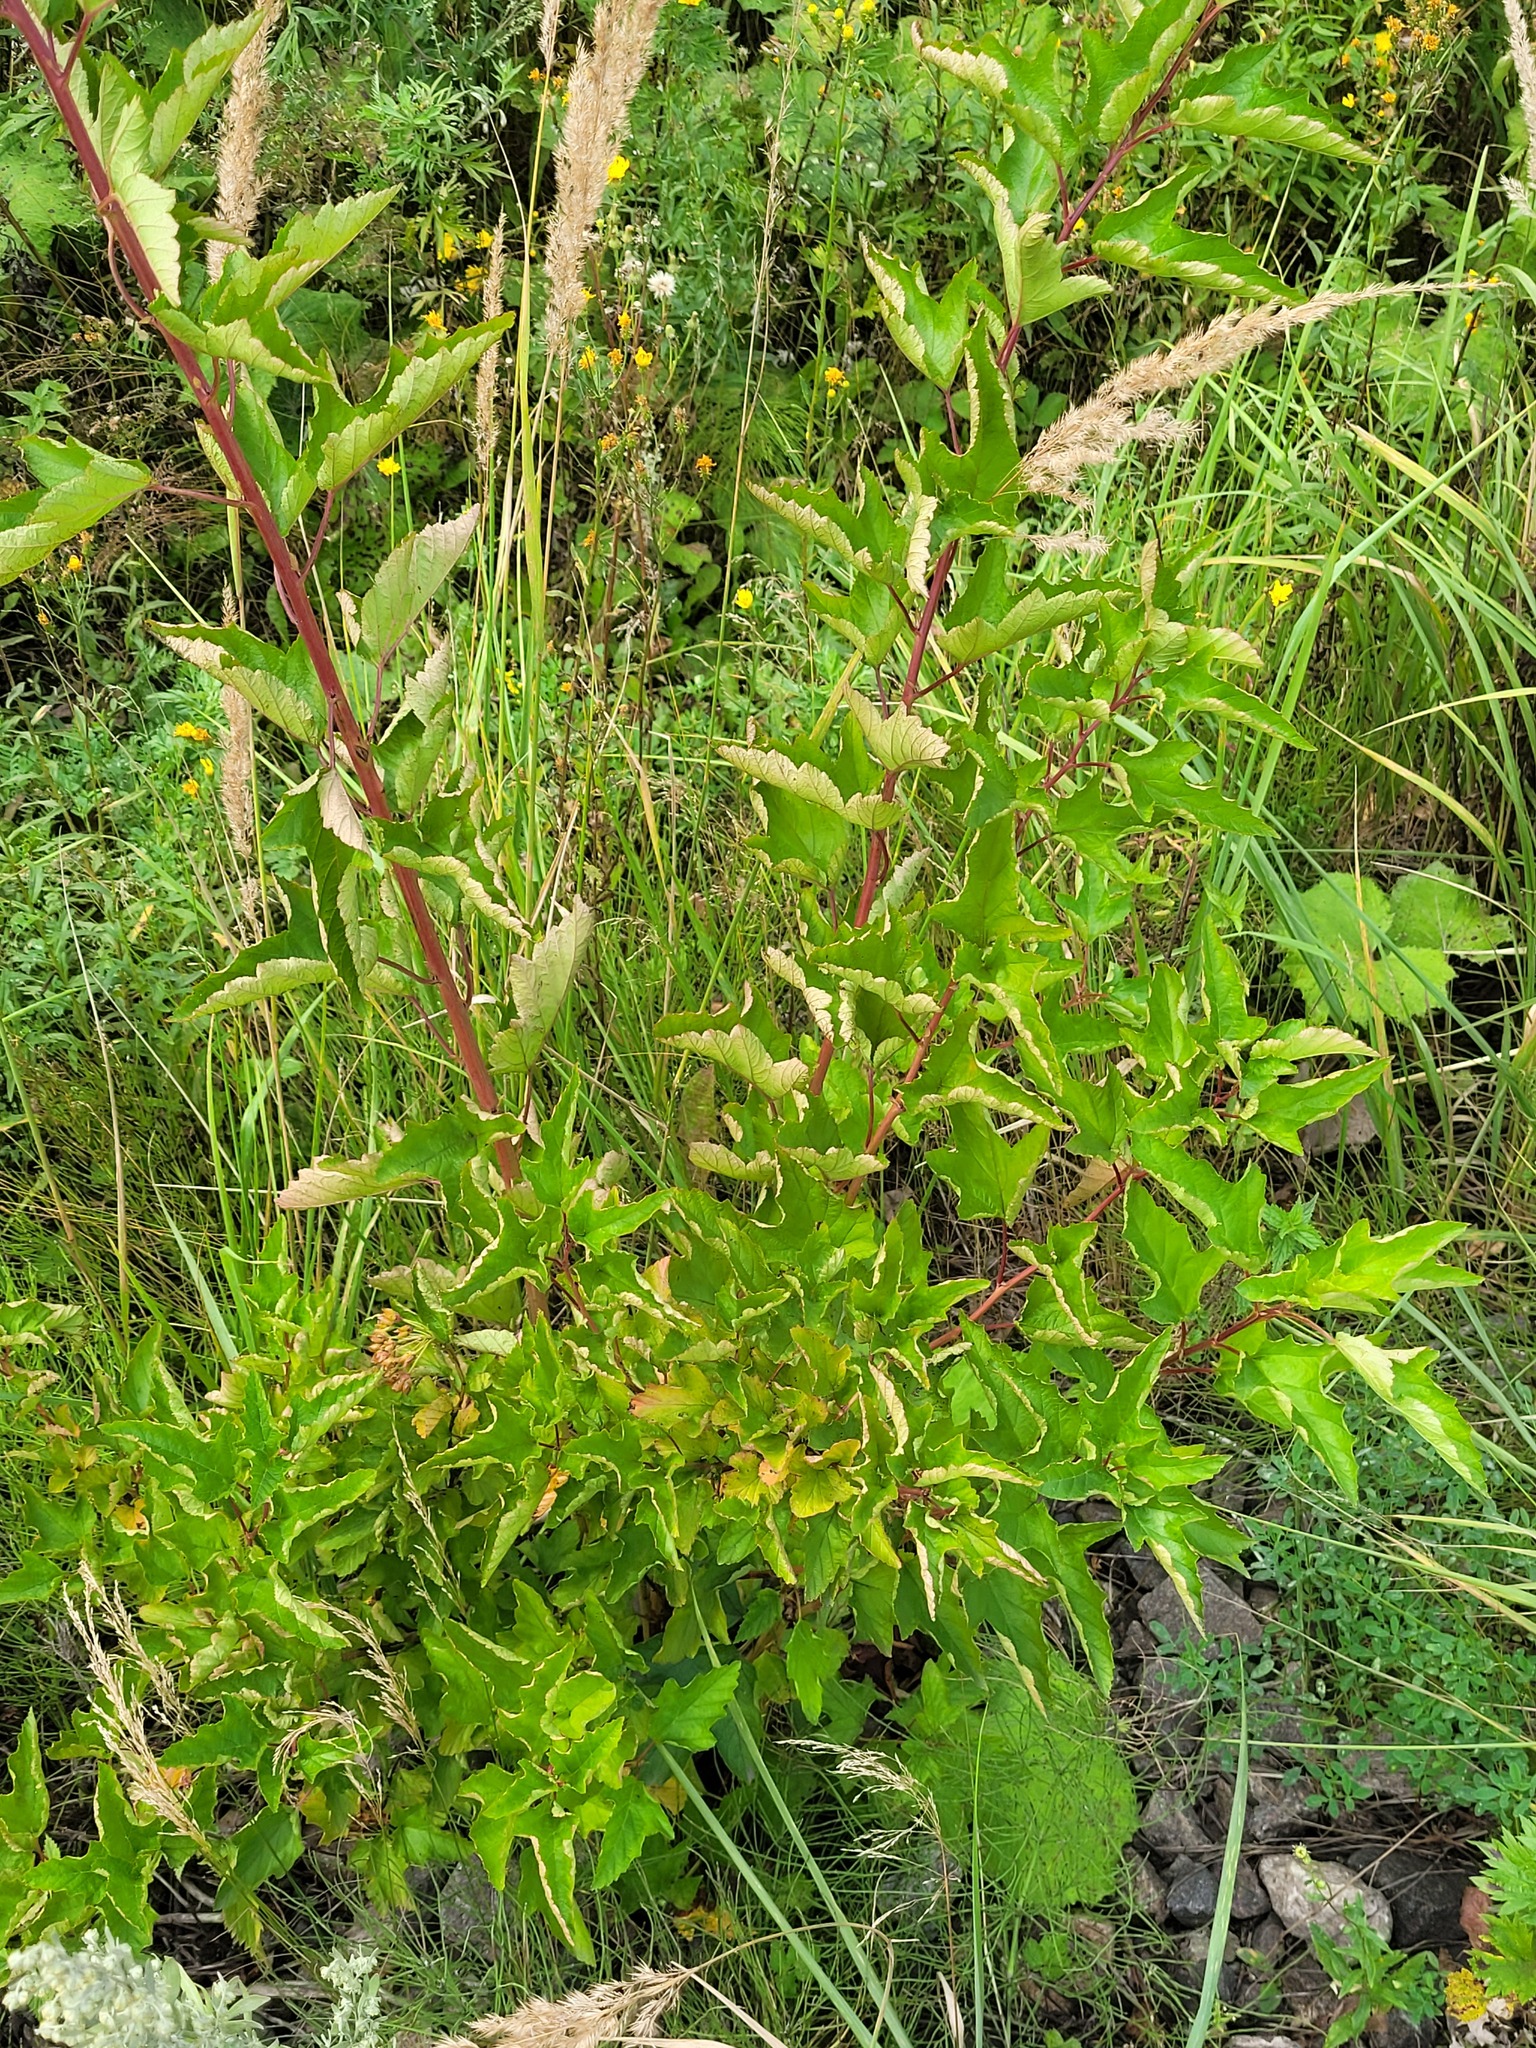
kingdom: Plantae
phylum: Tracheophyta
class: Magnoliopsida
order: Rosales
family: Rosaceae
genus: Physocarpus
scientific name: Physocarpus opulifolius
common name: Ninebark
